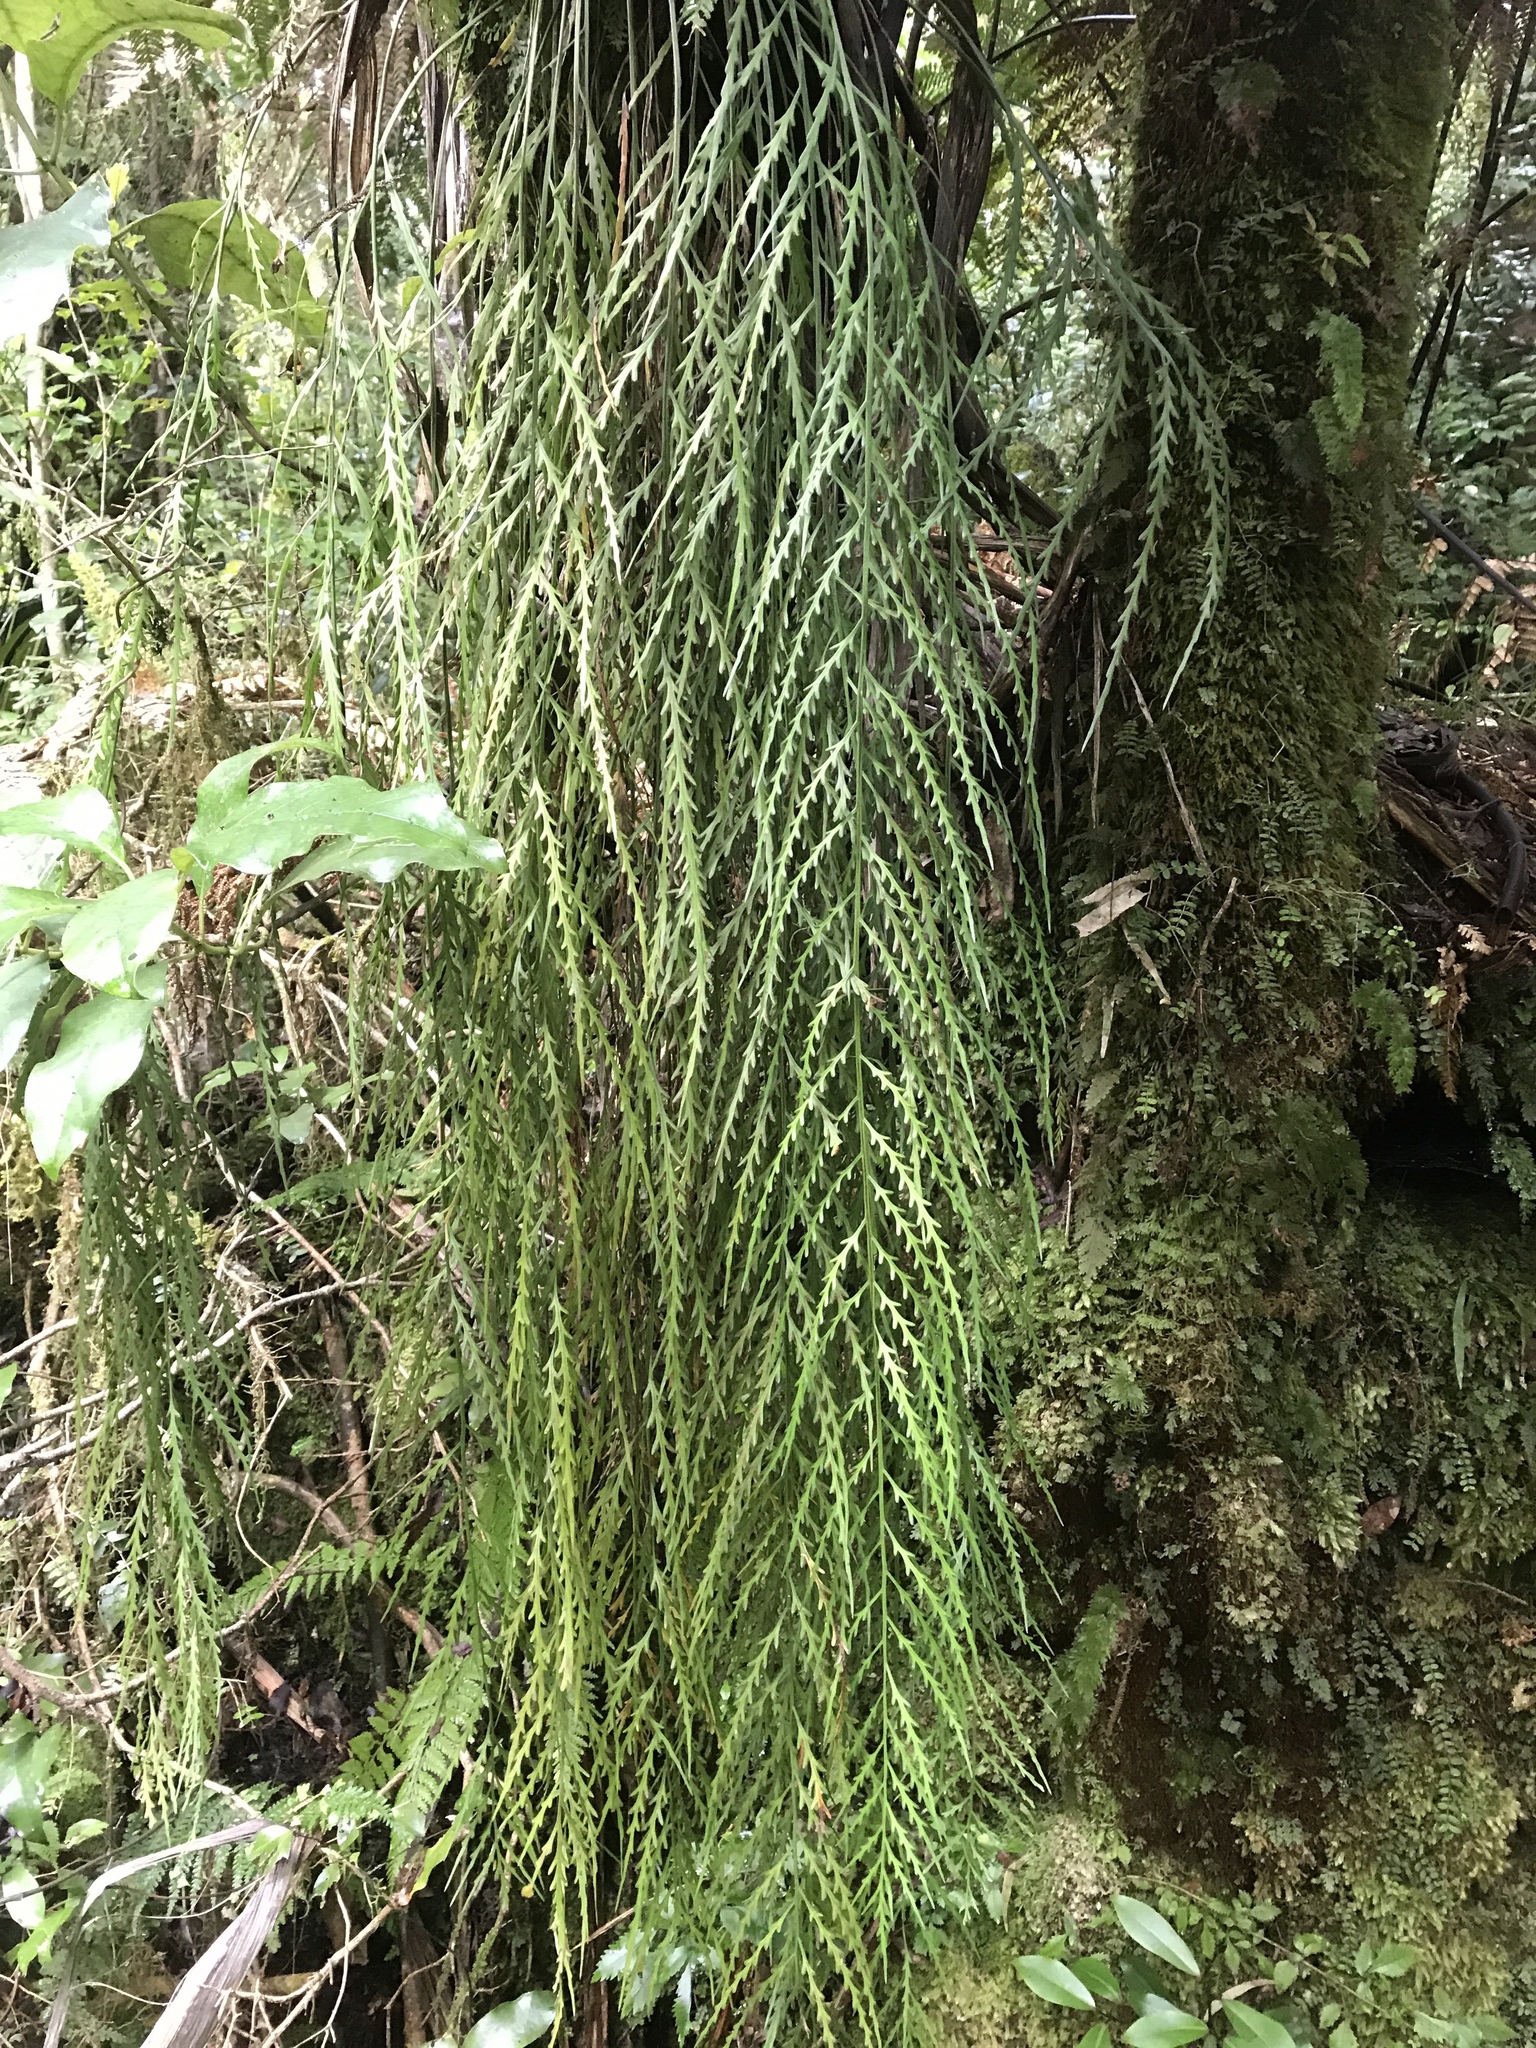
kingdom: Plantae
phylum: Tracheophyta
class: Polypodiopsida
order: Polypodiales
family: Aspleniaceae
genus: Asplenium
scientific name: Asplenium flaccidum
